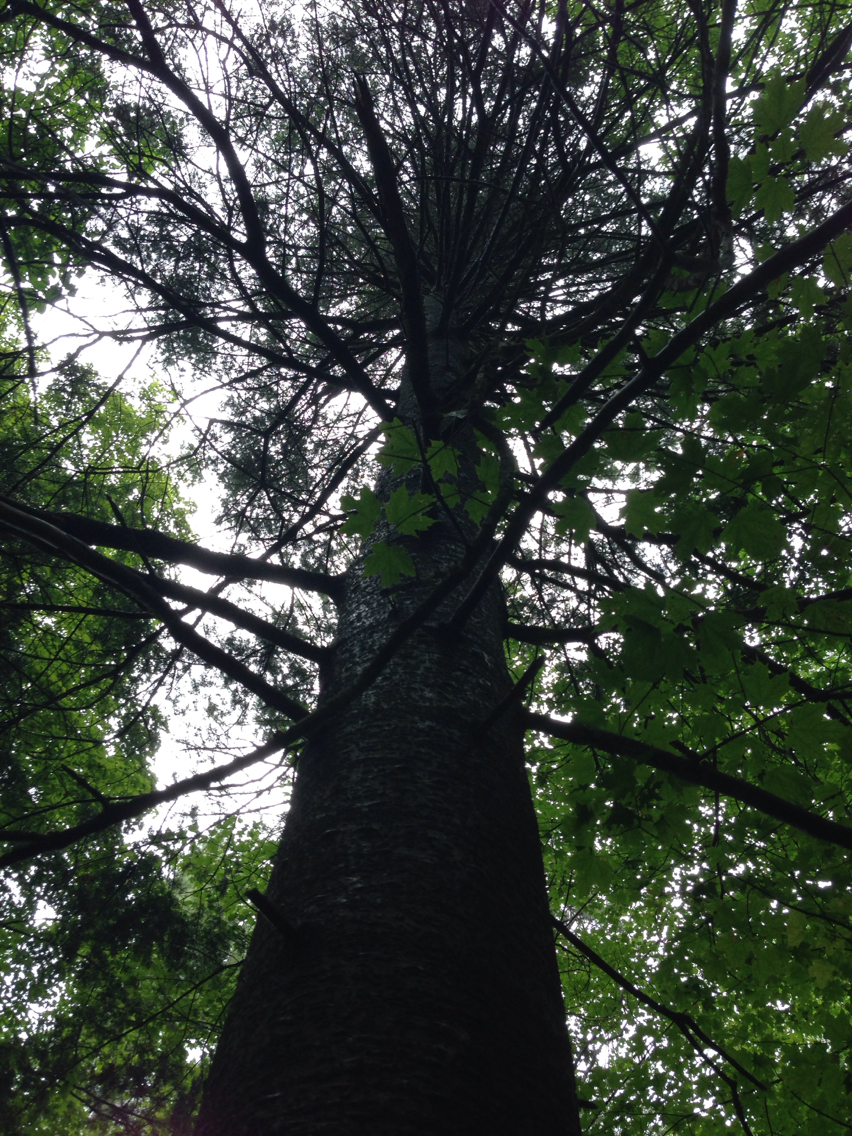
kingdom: Plantae
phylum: Tracheophyta
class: Pinopsida
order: Pinales
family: Pinaceae
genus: Abies
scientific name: Abies balsamea
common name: Balsam fir
